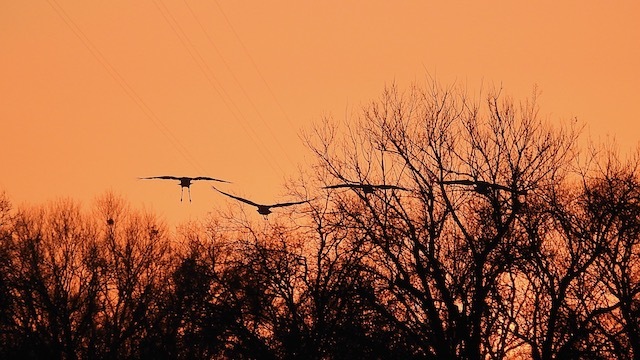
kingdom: Animalia
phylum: Chordata
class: Aves
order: Gruiformes
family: Gruidae
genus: Grus
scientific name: Grus canadensis
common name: Sandhill crane
